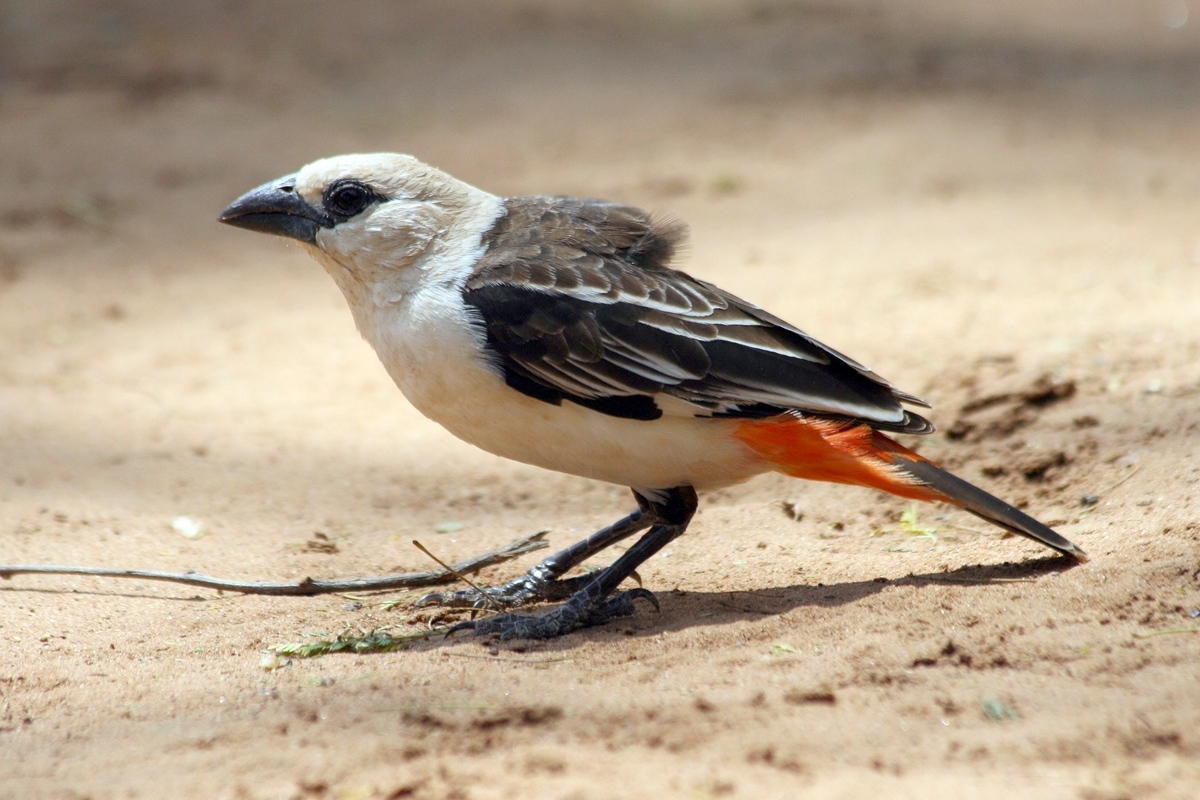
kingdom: Animalia
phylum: Chordata
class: Aves
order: Passeriformes
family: Ploceidae
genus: Dinemellia
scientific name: Dinemellia dinemelli
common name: White-headed buffalo weaver
